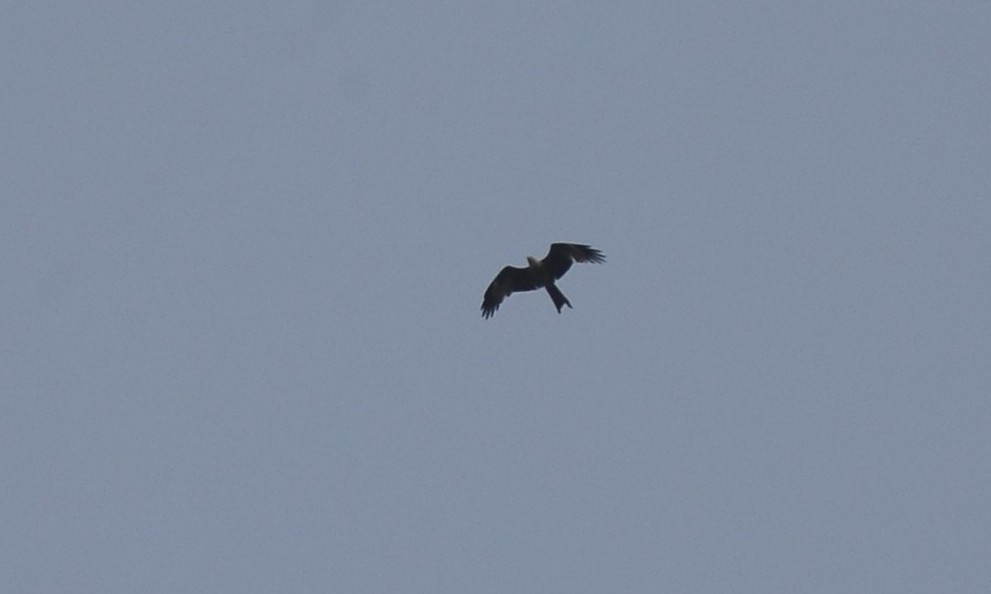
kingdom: Animalia
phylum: Chordata
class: Aves
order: Accipitriformes
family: Accipitridae
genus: Milvus
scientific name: Milvus migrans
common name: Black kite
